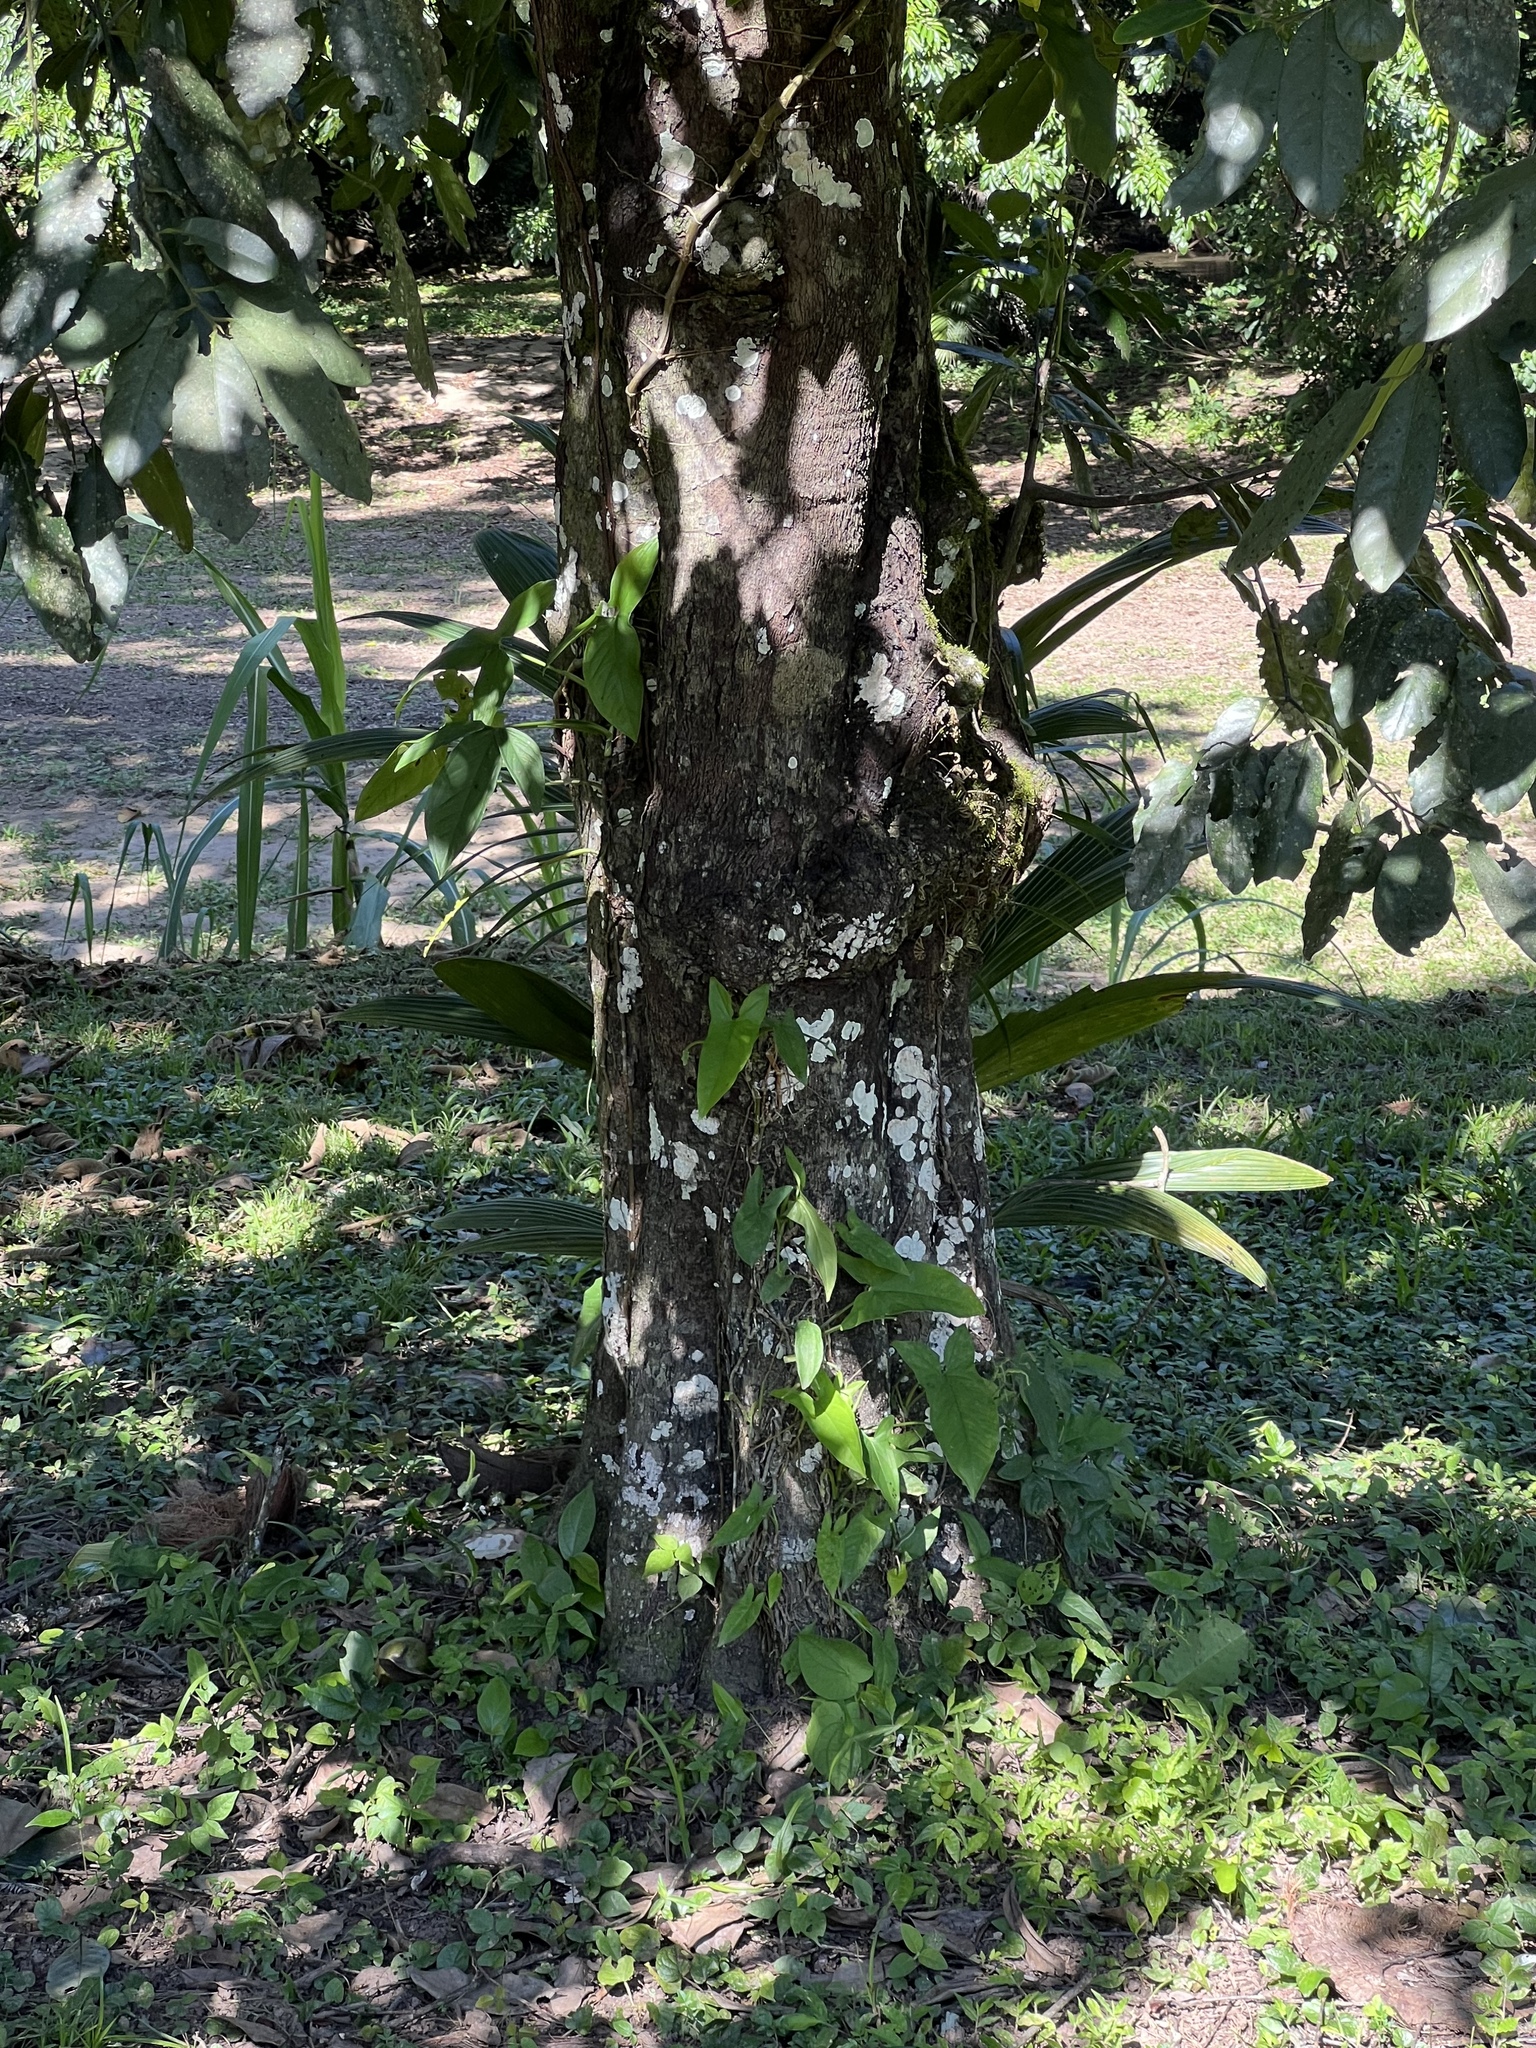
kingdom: Plantae
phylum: Tracheophyta
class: Magnoliopsida
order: Myrtales
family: Myrtaceae
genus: Pimenta
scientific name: Pimenta dioica
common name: Allspice
